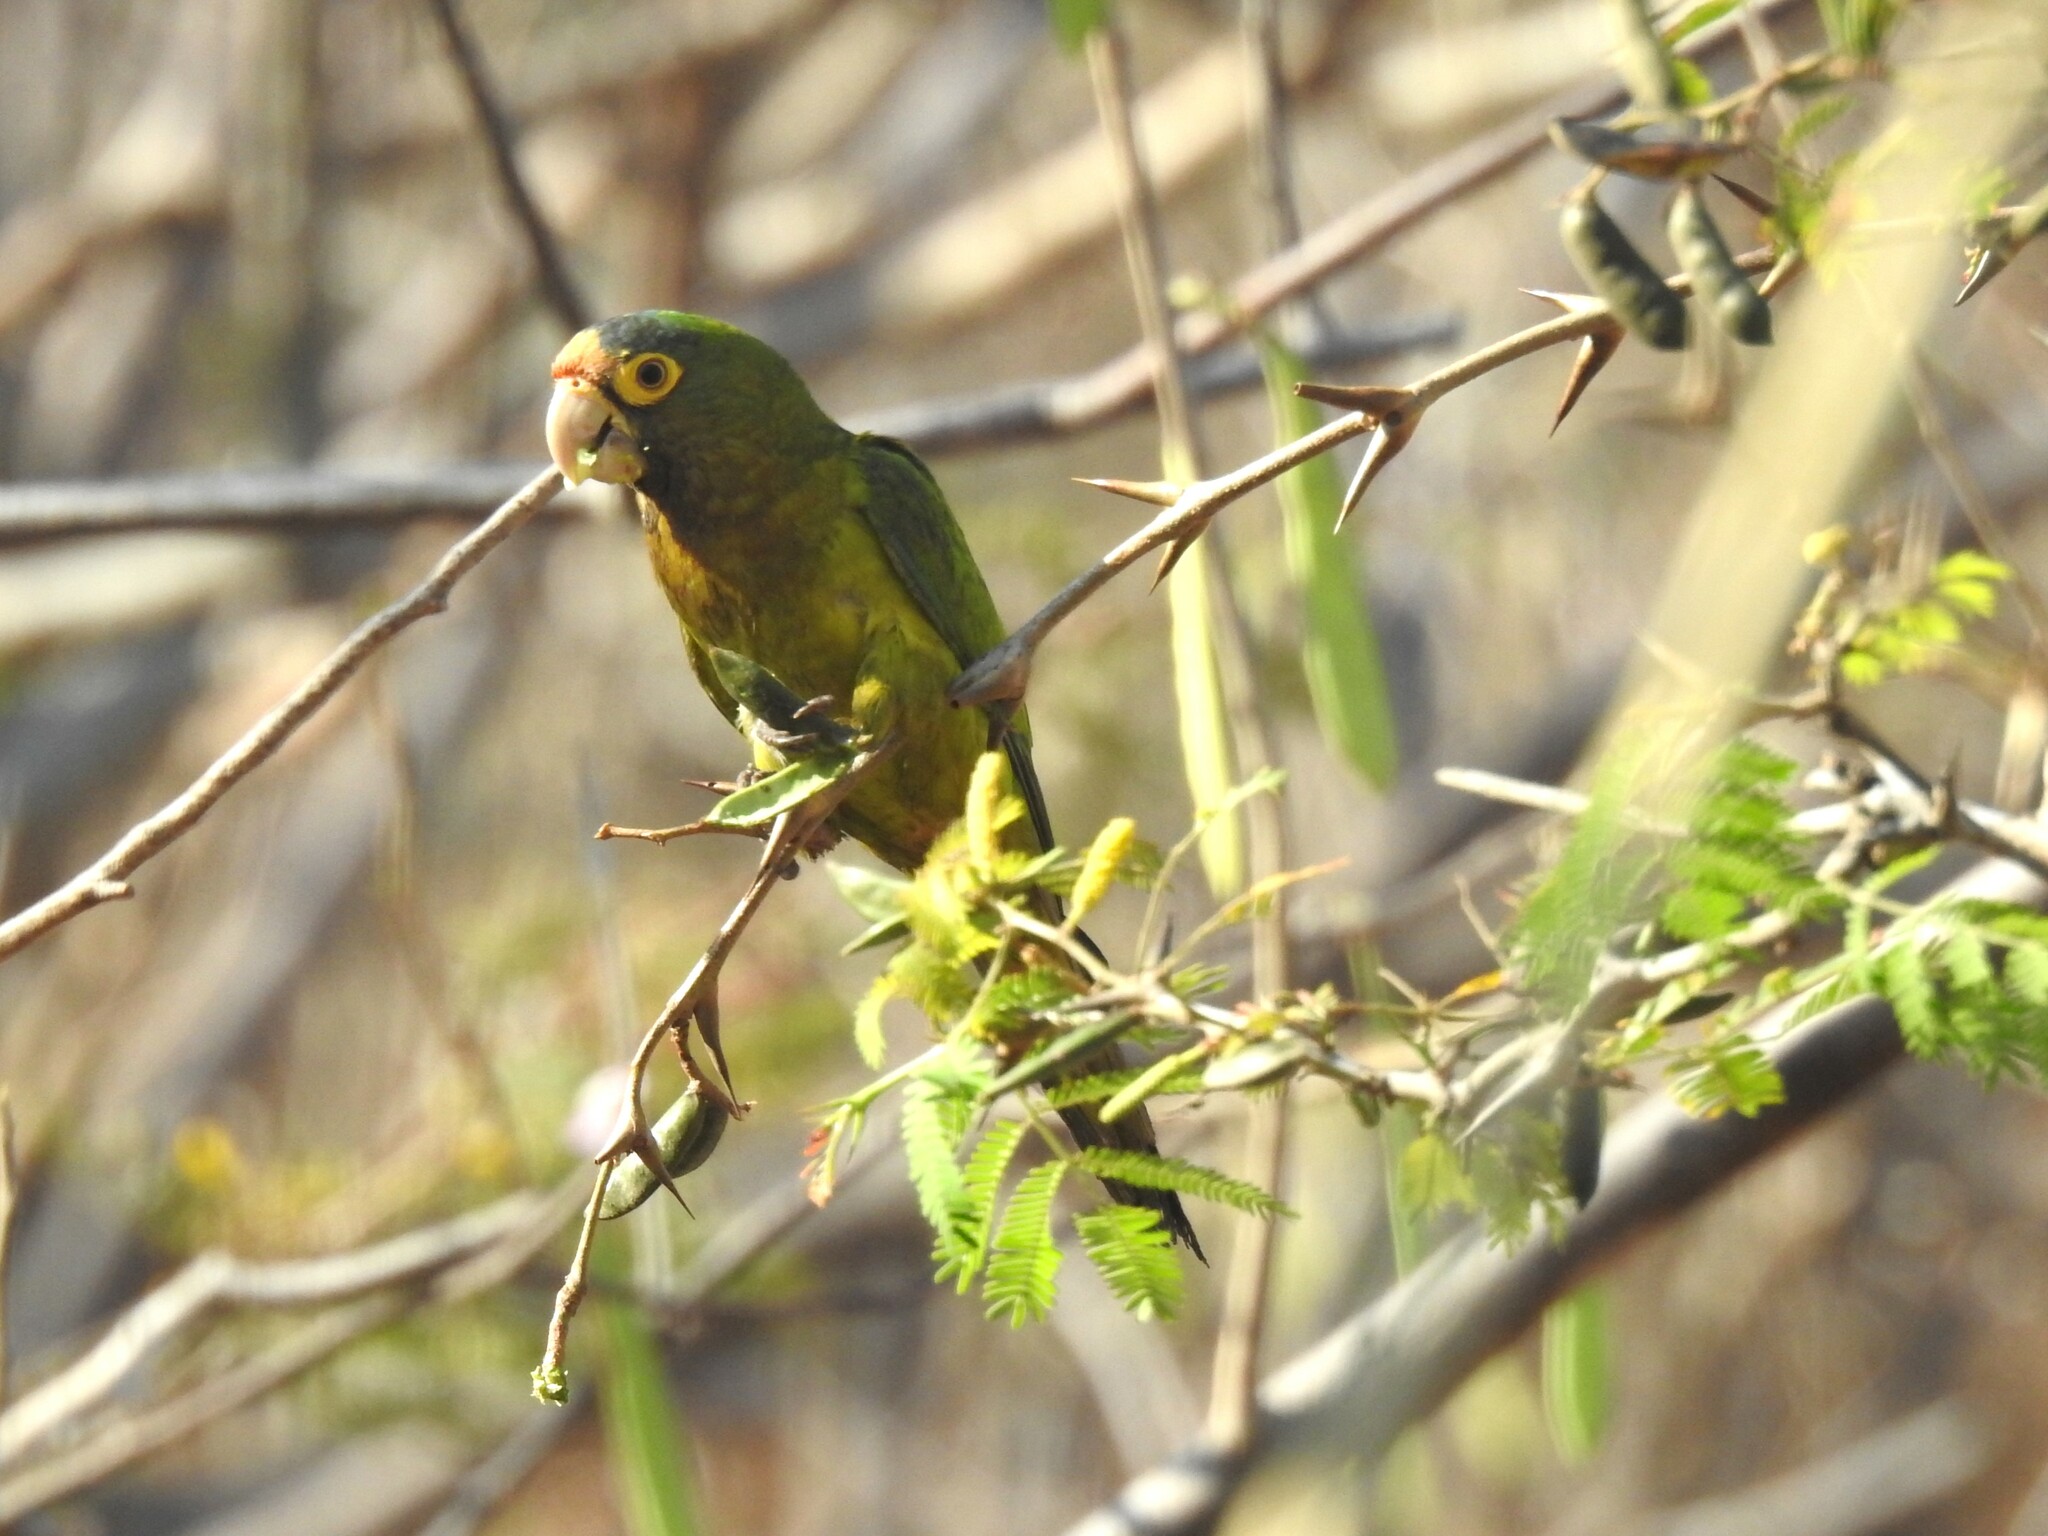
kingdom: Animalia
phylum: Chordata
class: Aves
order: Psittaciformes
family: Psittacidae
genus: Aratinga
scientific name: Aratinga canicularis
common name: Orange-fronted parakeet
